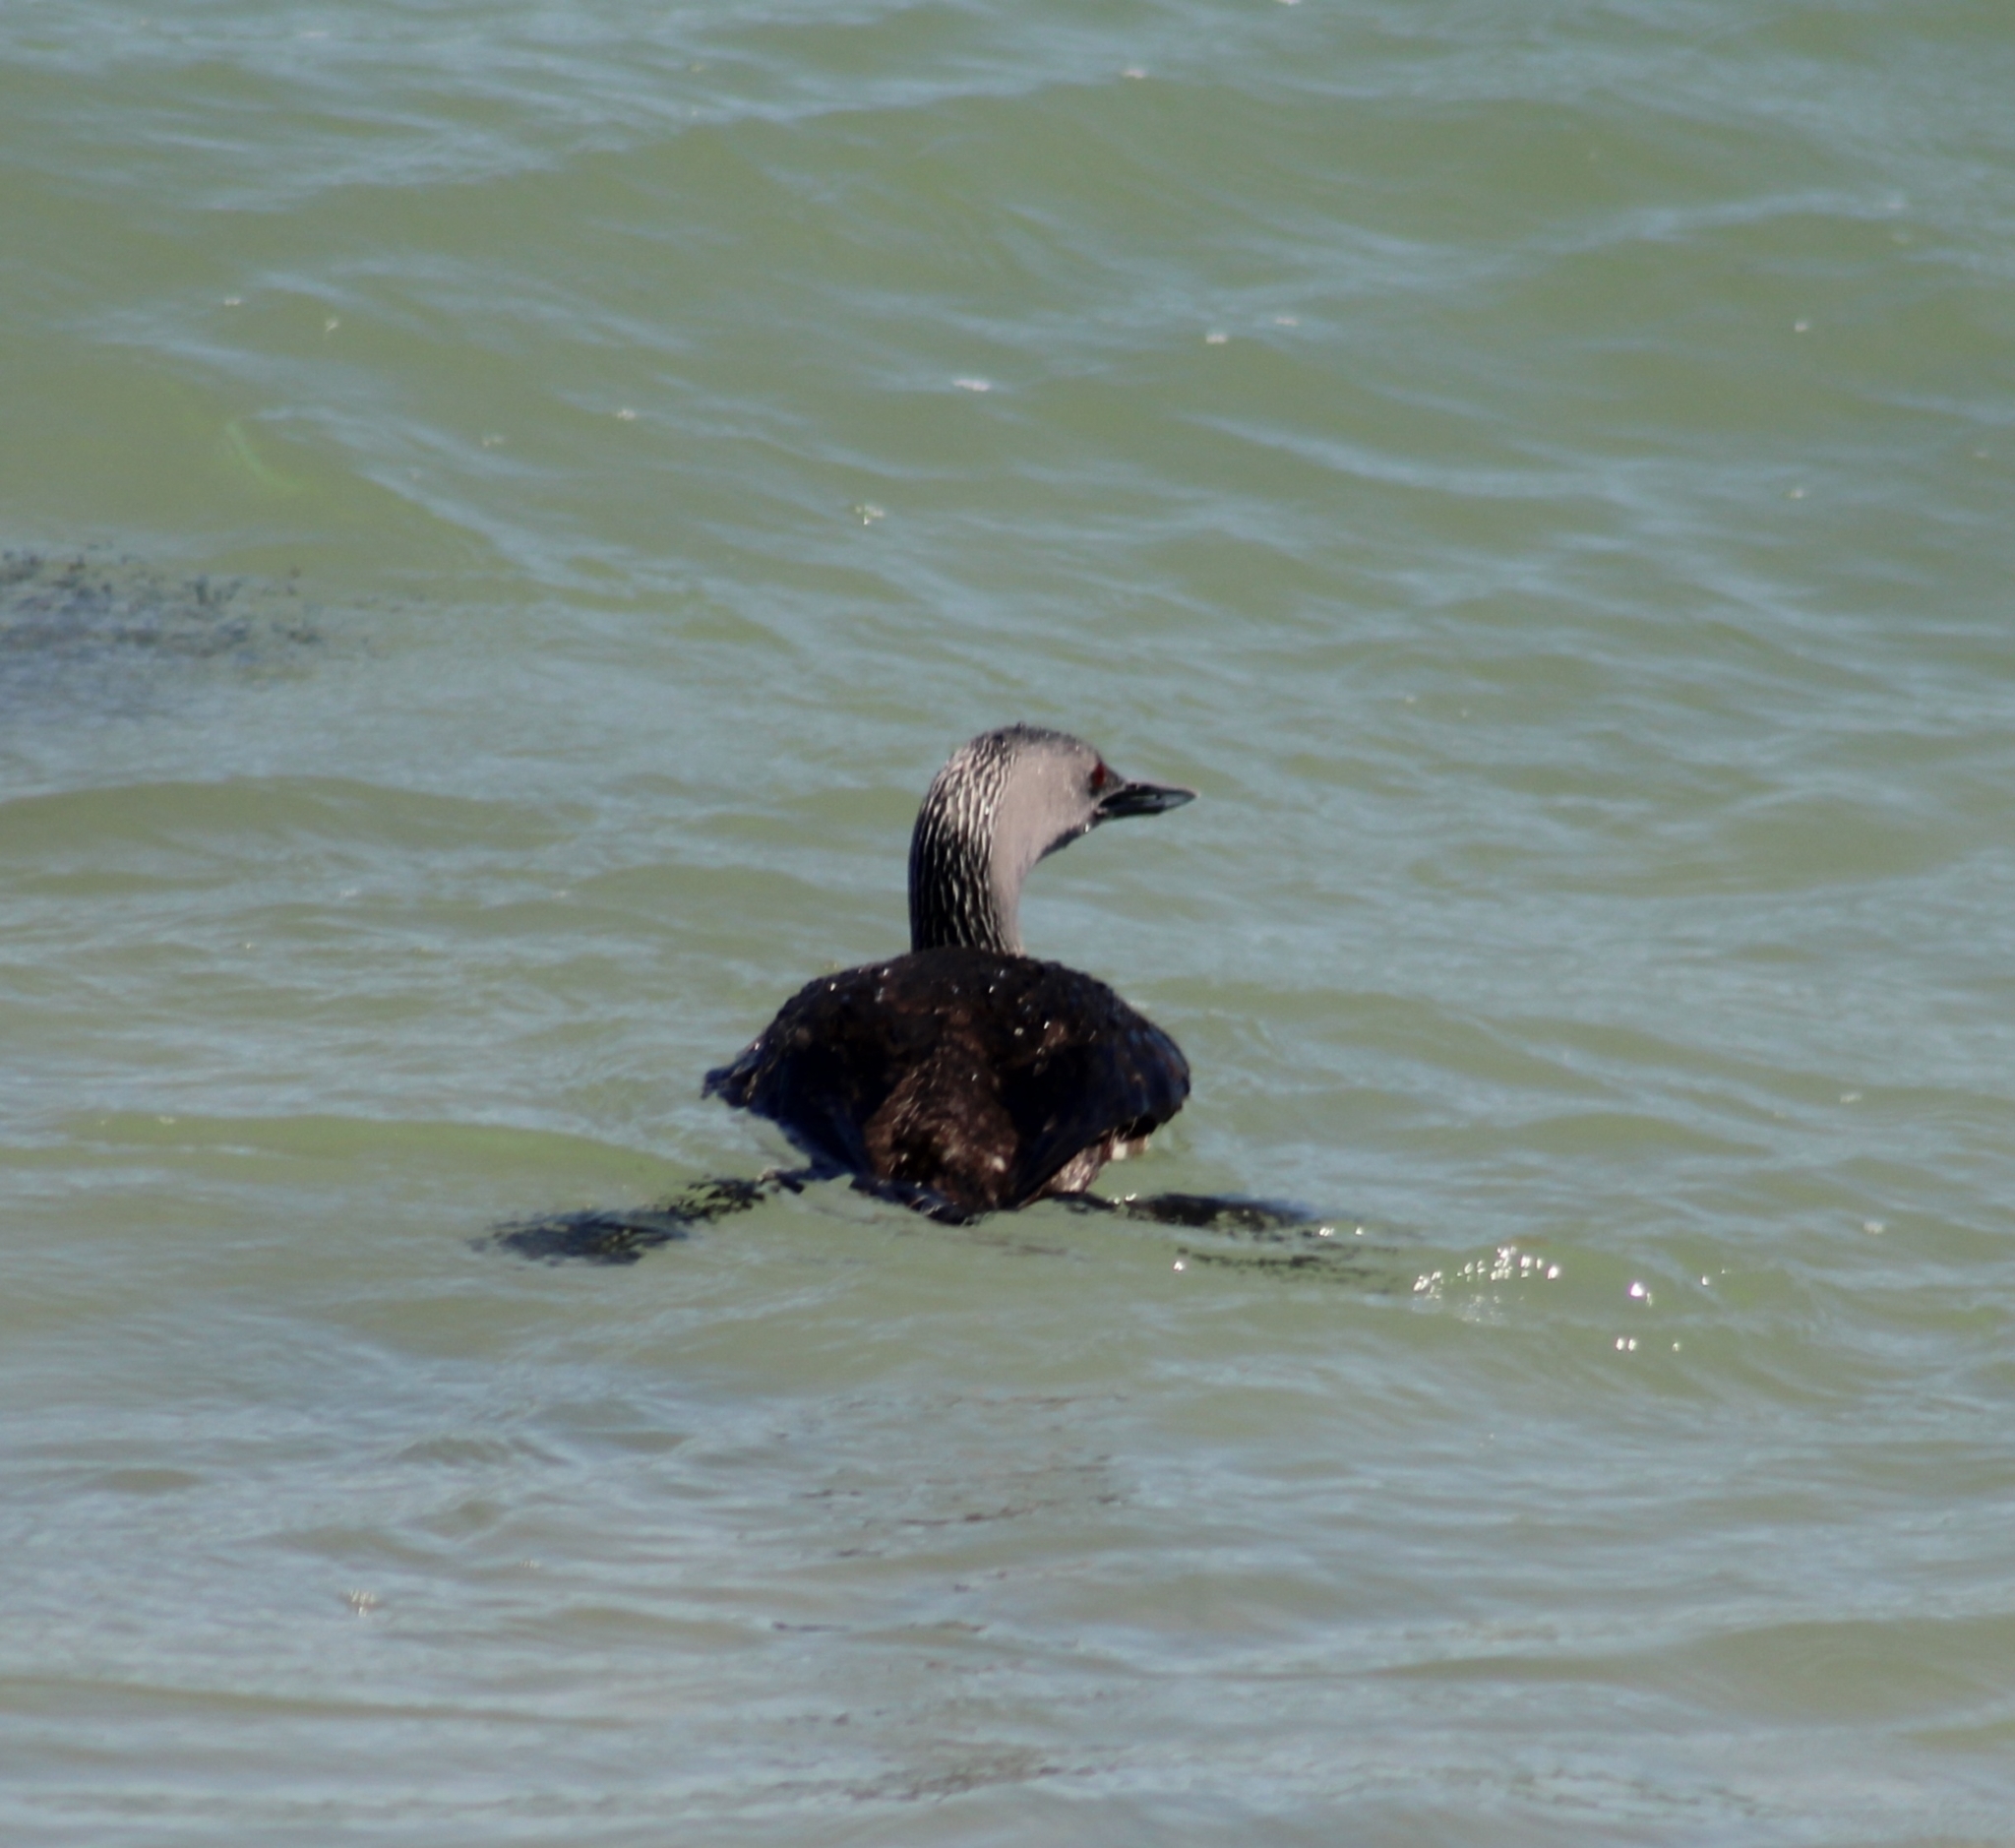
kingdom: Animalia
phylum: Chordata
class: Aves
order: Gaviiformes
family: Gaviidae
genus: Gavia
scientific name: Gavia stellata
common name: Red-throated loon
